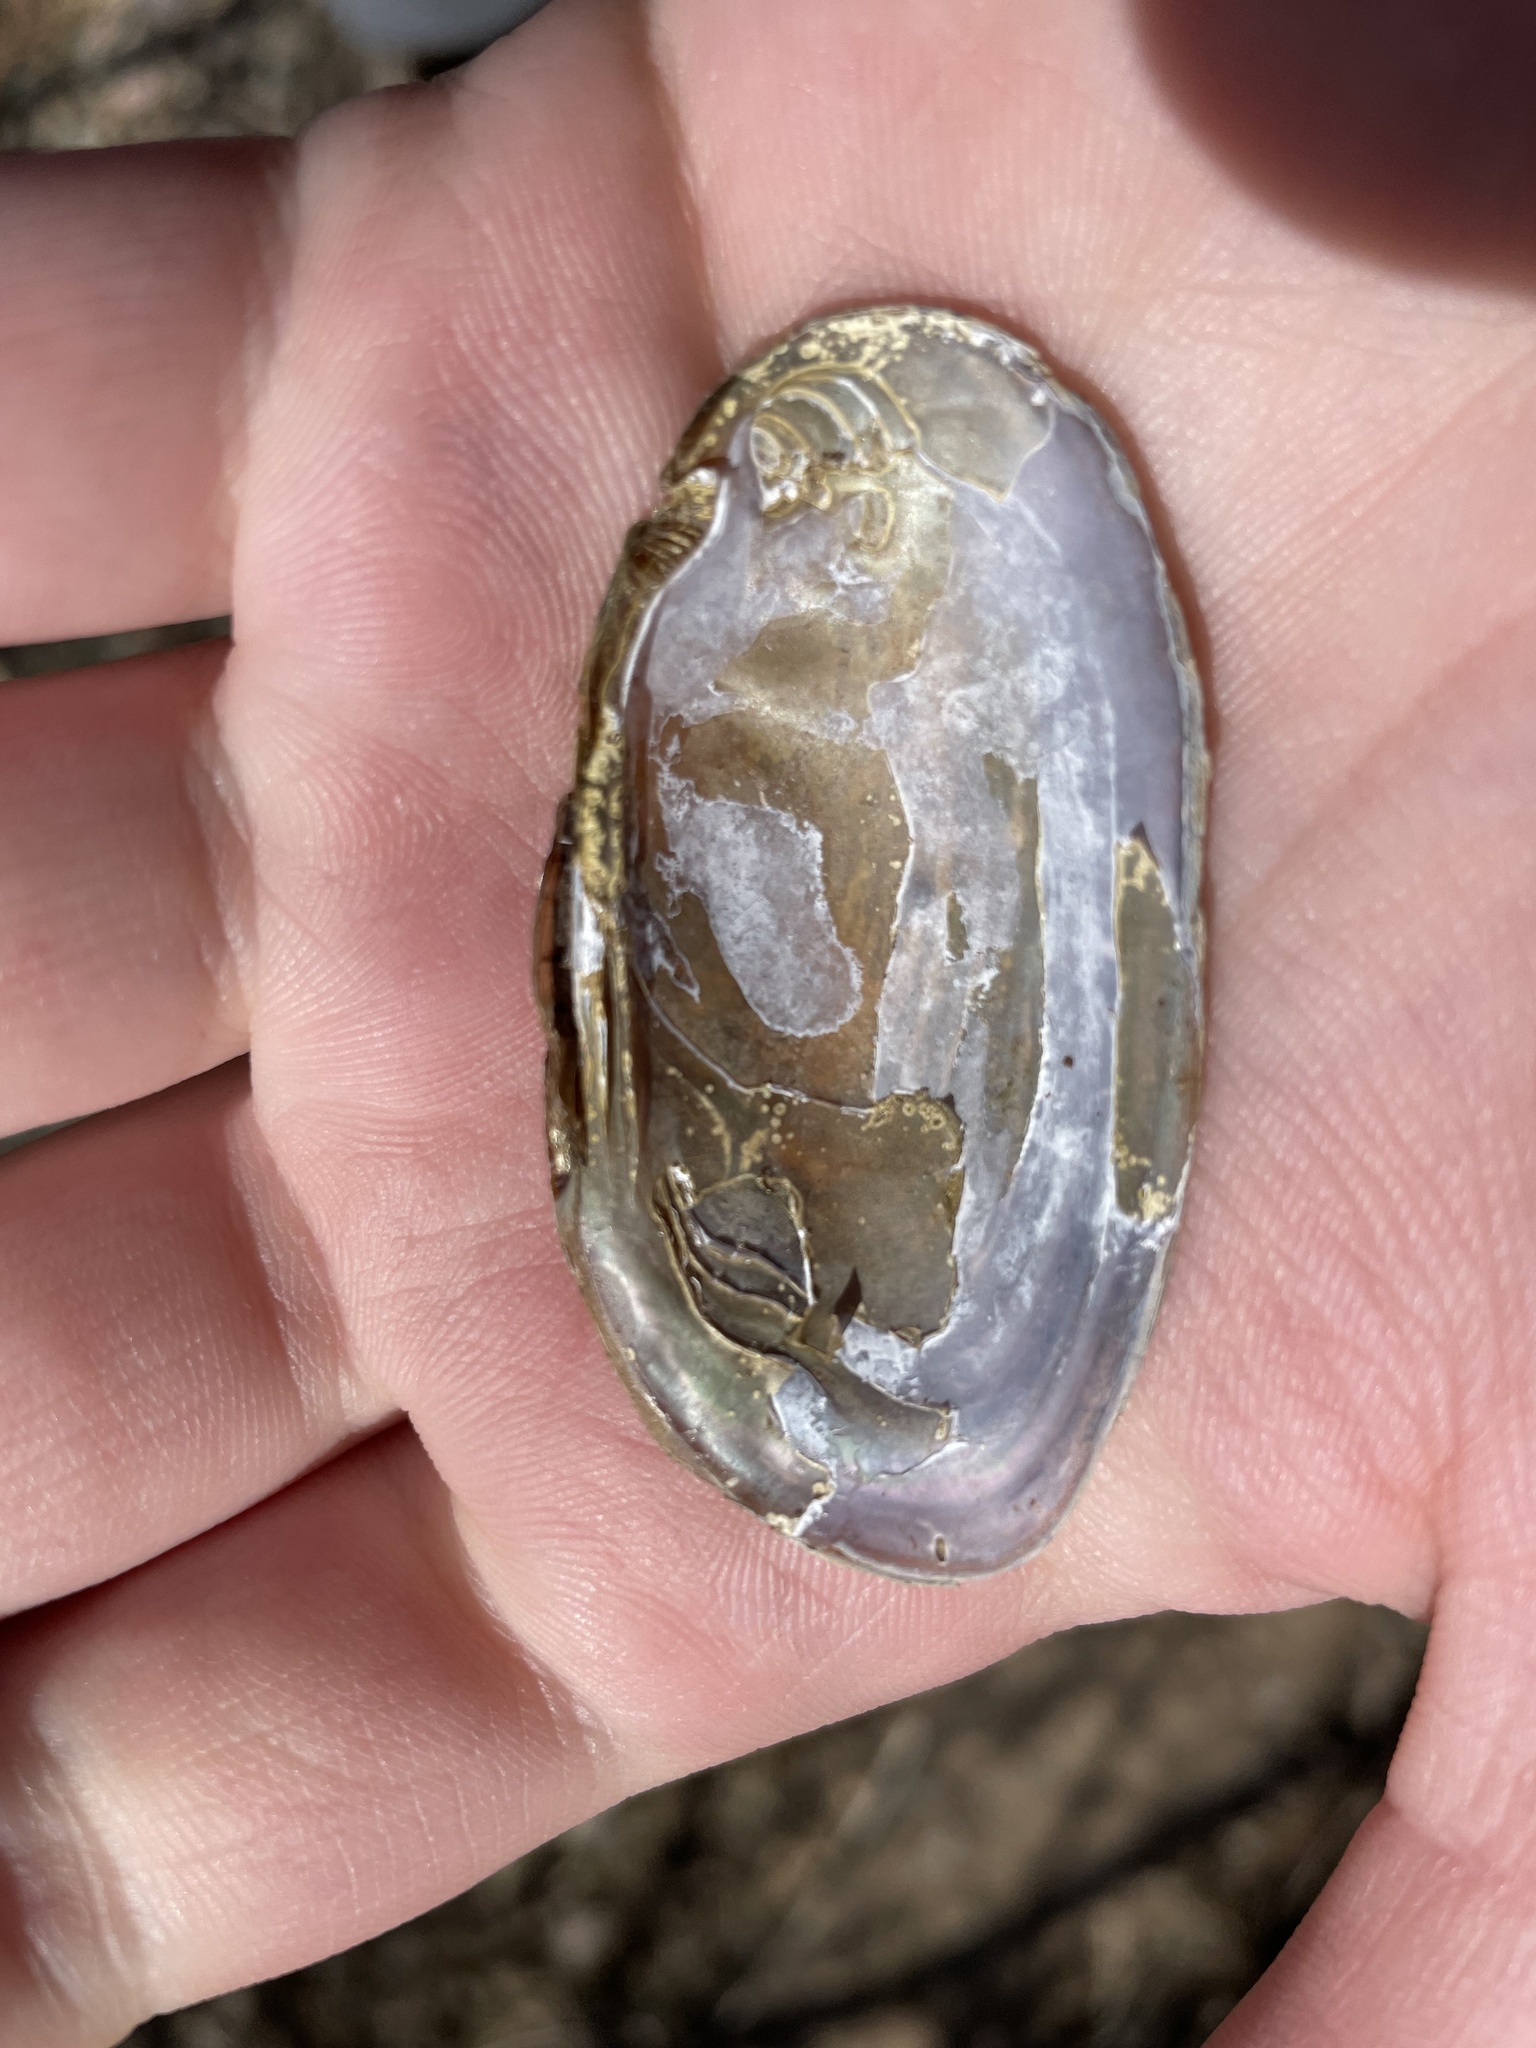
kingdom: Animalia
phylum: Mollusca
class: Bivalvia
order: Unionida
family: Unionidae
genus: Elliptio
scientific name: Elliptio complanata
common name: Eastern elliptio
